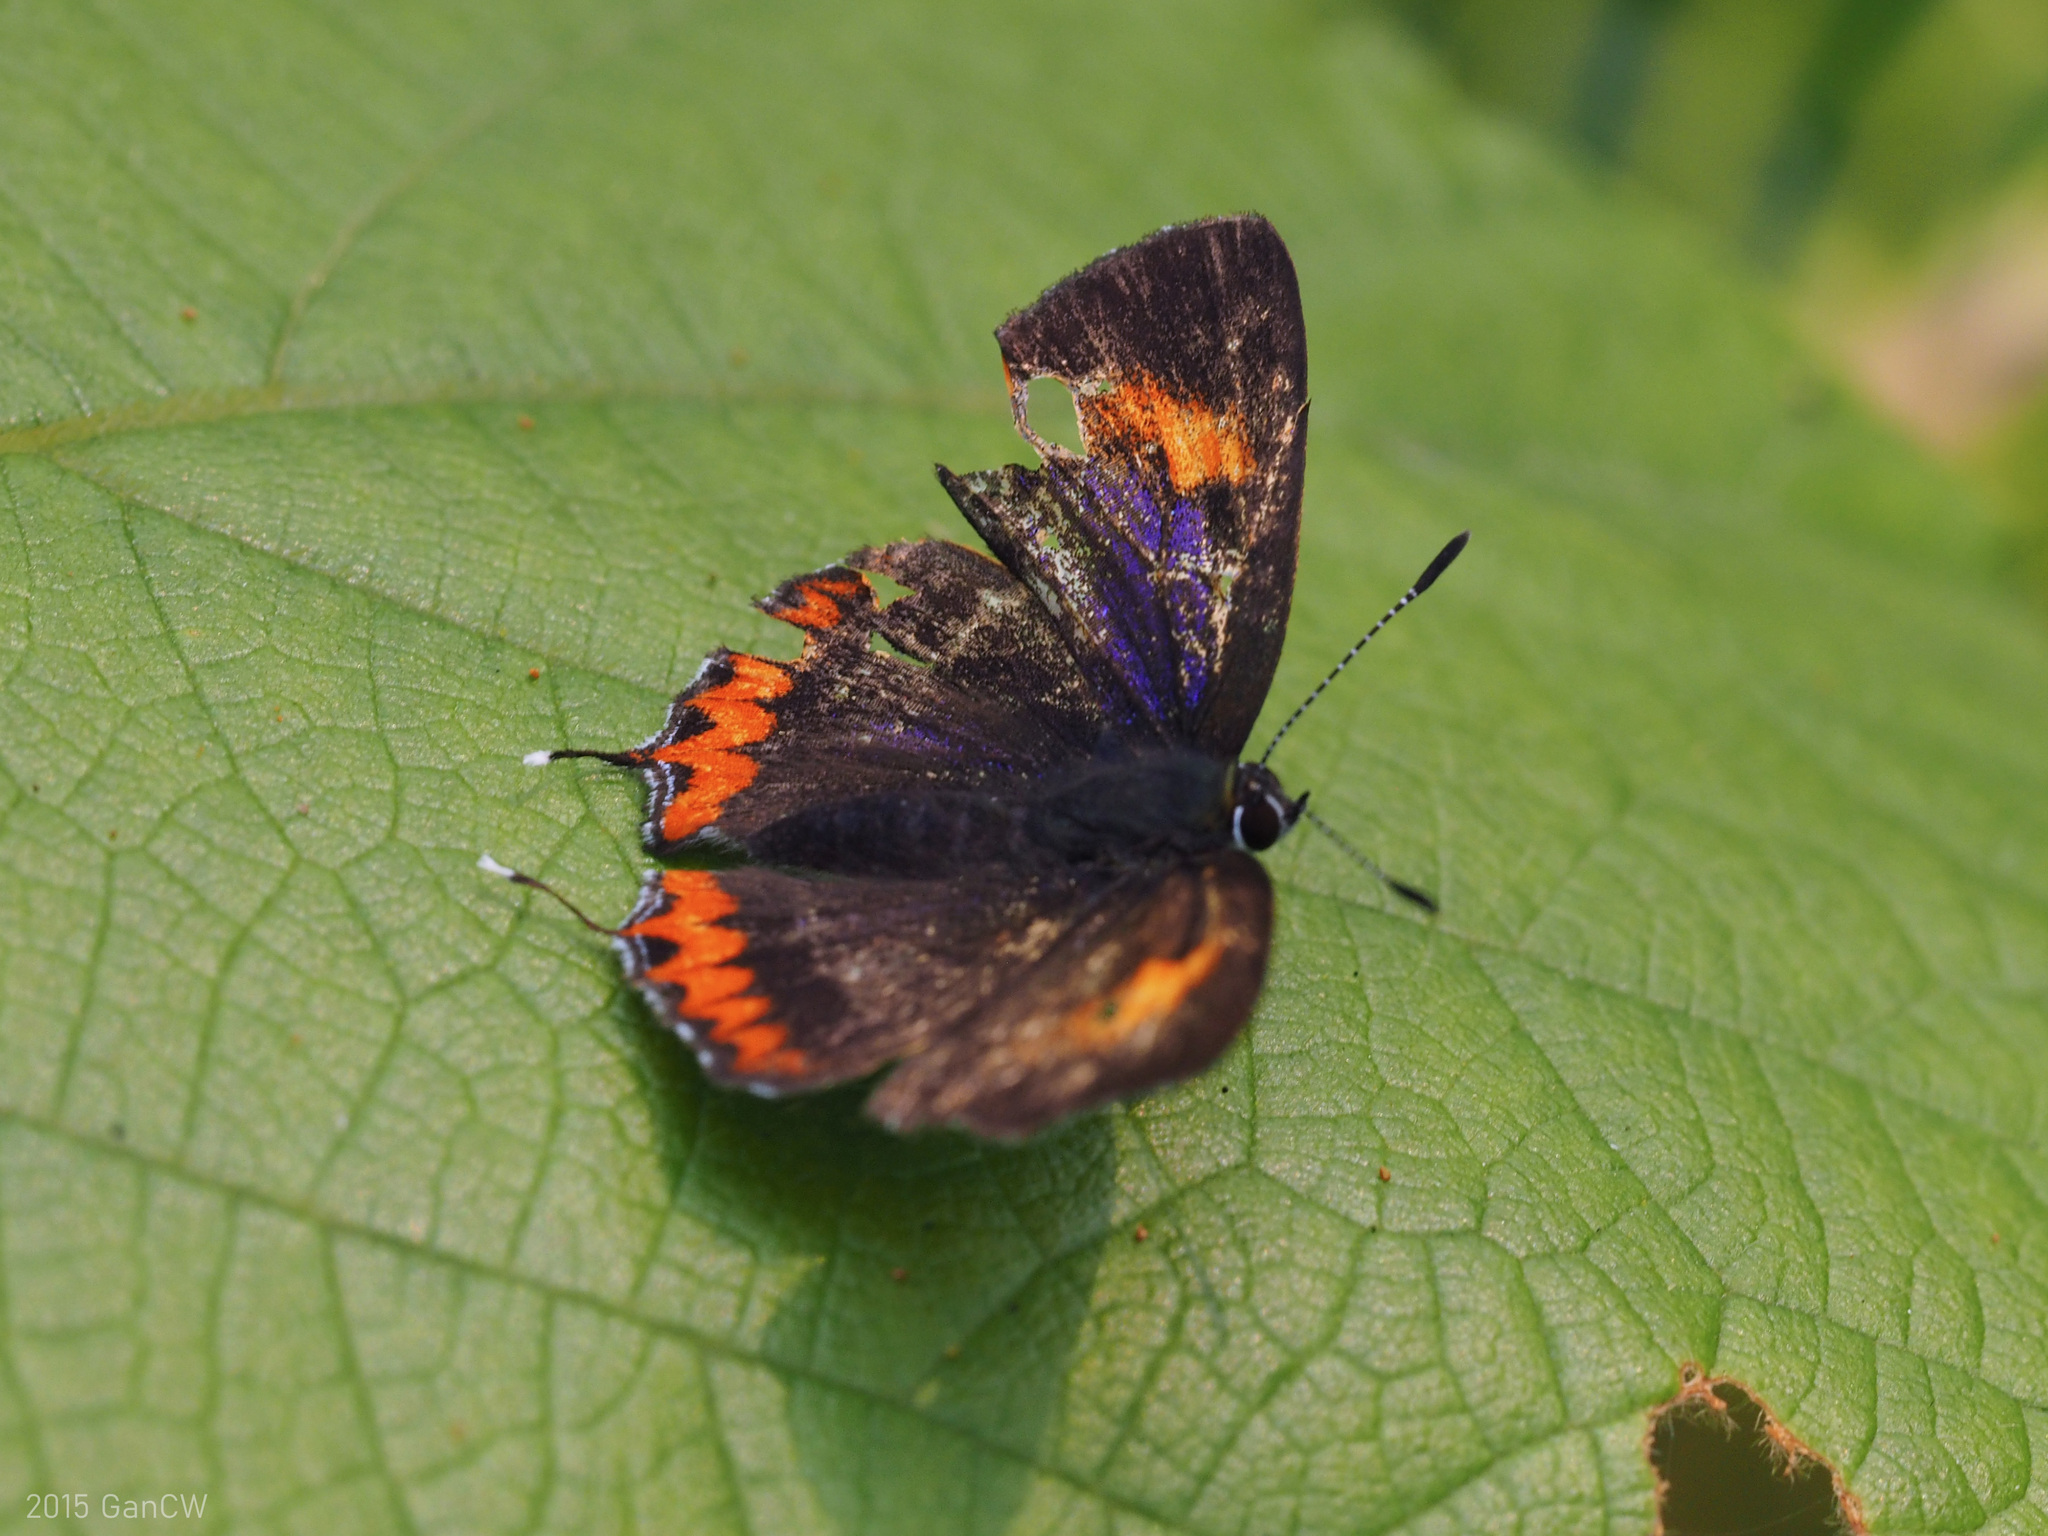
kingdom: Animalia
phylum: Arthropoda
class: Insecta
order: Lepidoptera
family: Lycaenidae
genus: Heliophorus
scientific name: Heliophorus epicles
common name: Purple sapphire
